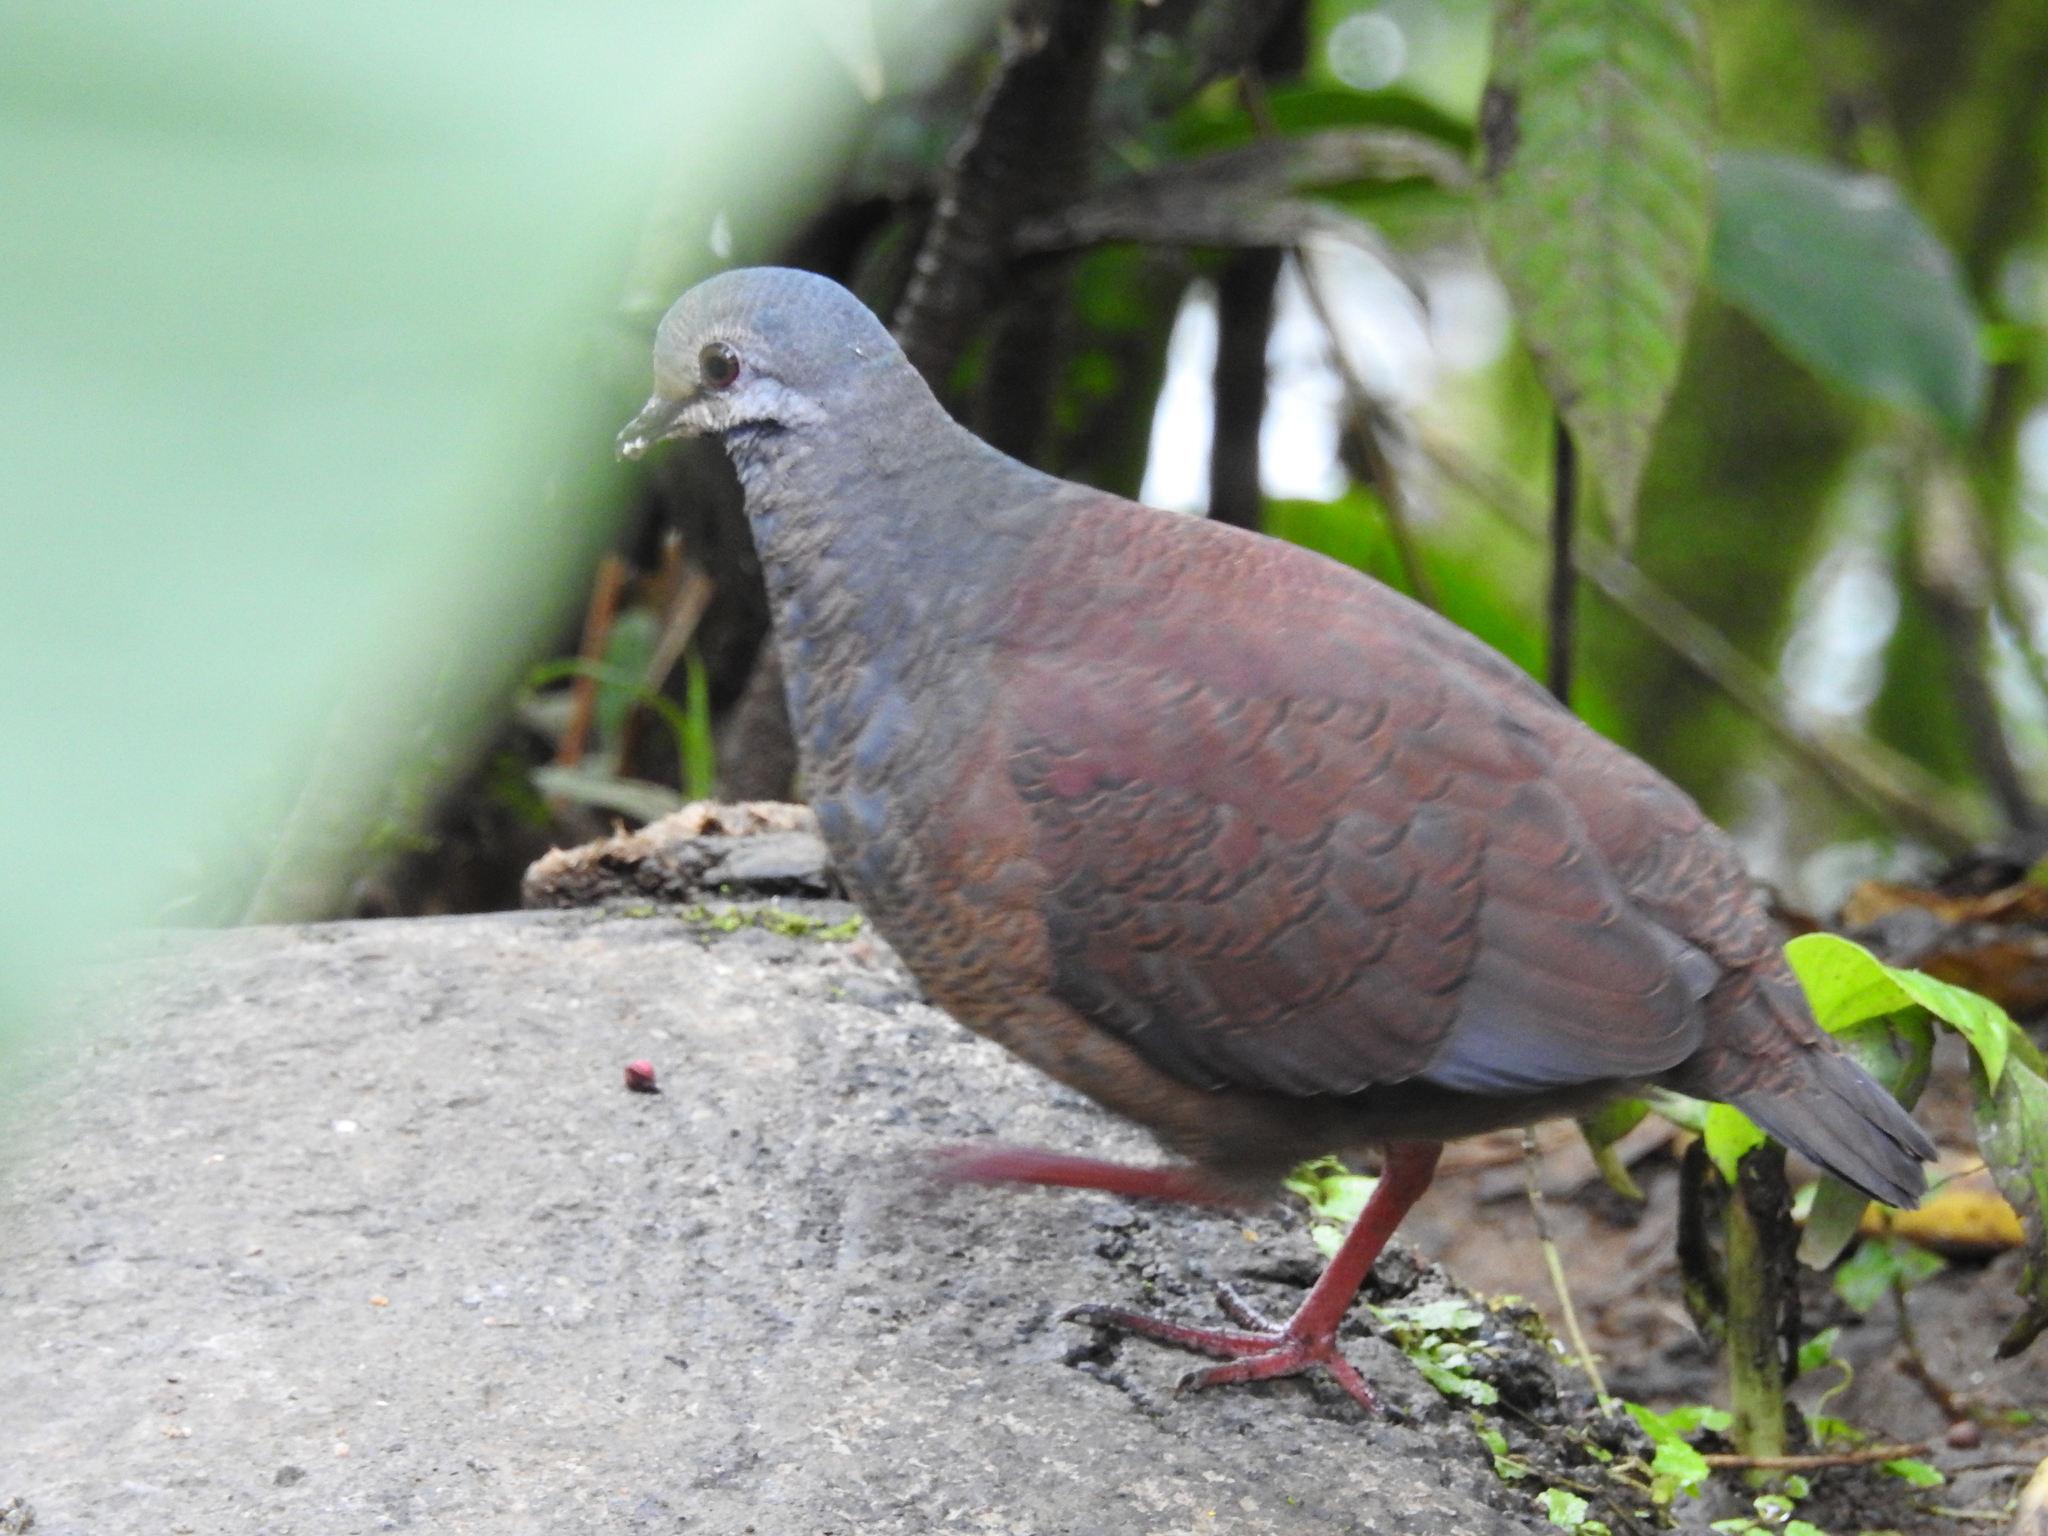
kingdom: Animalia
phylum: Chordata
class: Aves
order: Columbiformes
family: Columbidae
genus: Zentrygon
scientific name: Zentrygon costaricensis
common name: Buff-fronted quail-dove
